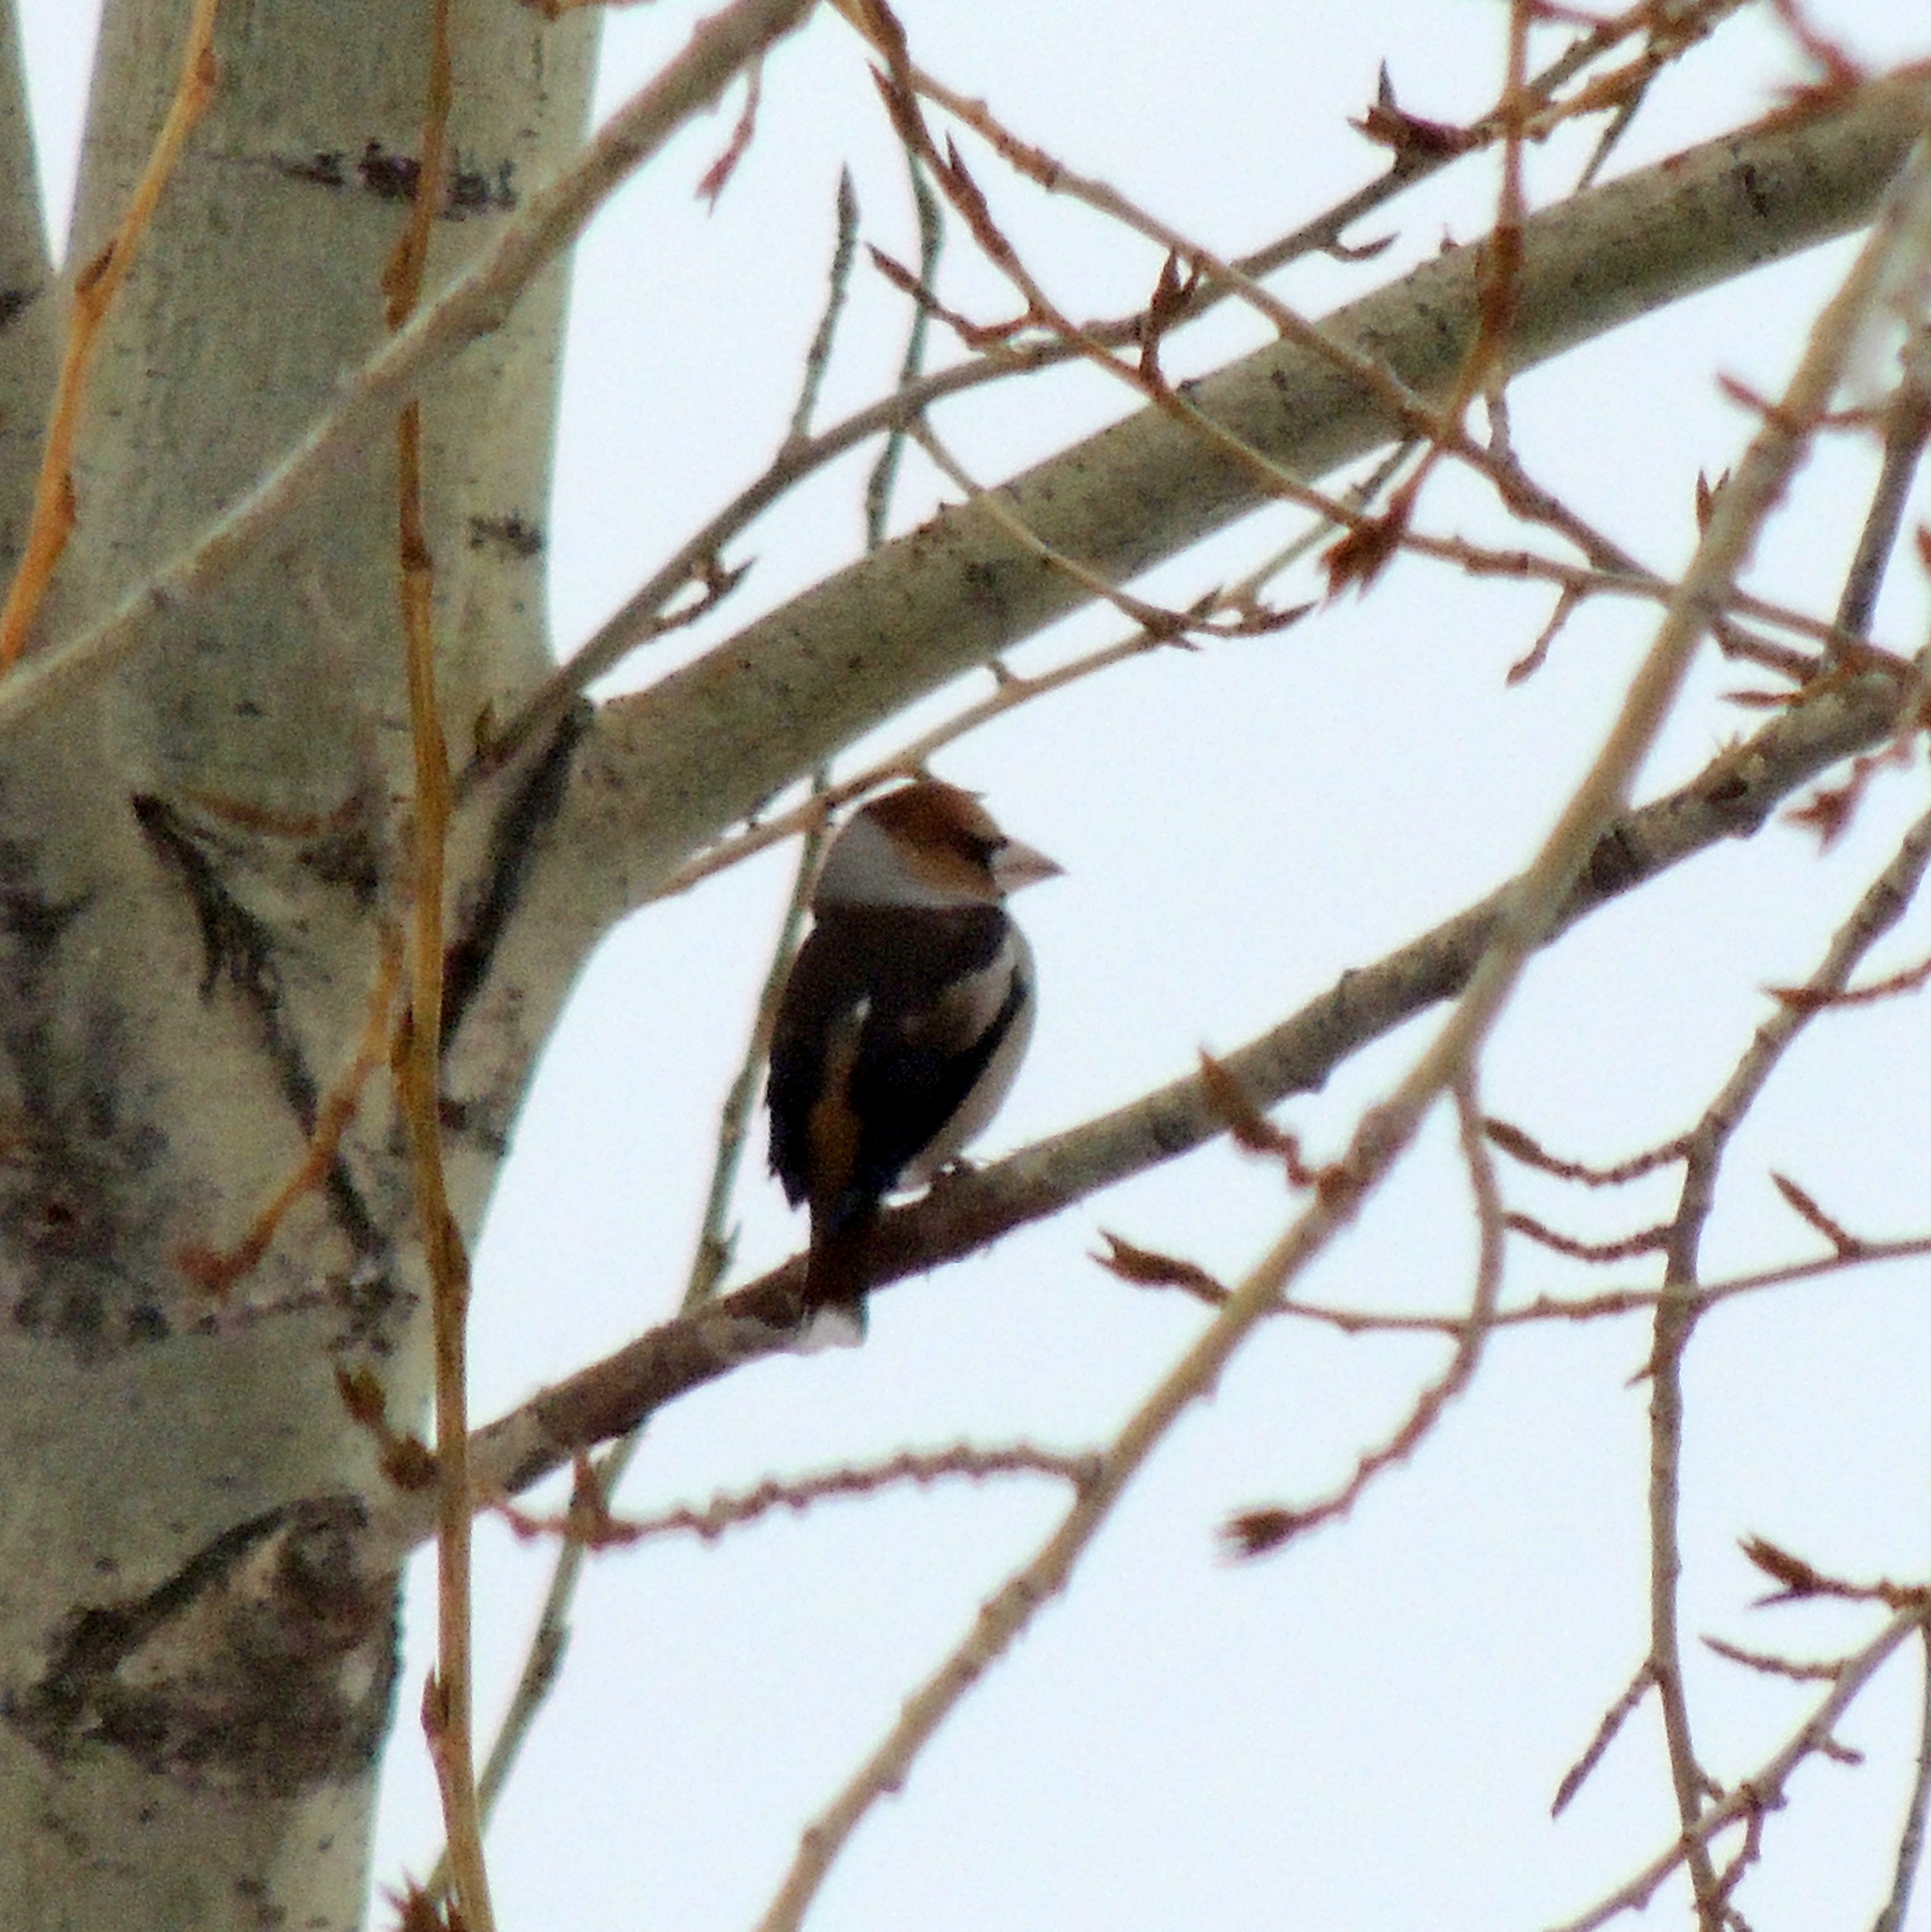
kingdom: Animalia
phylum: Chordata
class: Aves
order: Passeriformes
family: Fringillidae
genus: Coccothraustes
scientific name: Coccothraustes coccothraustes
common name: Hawfinch
